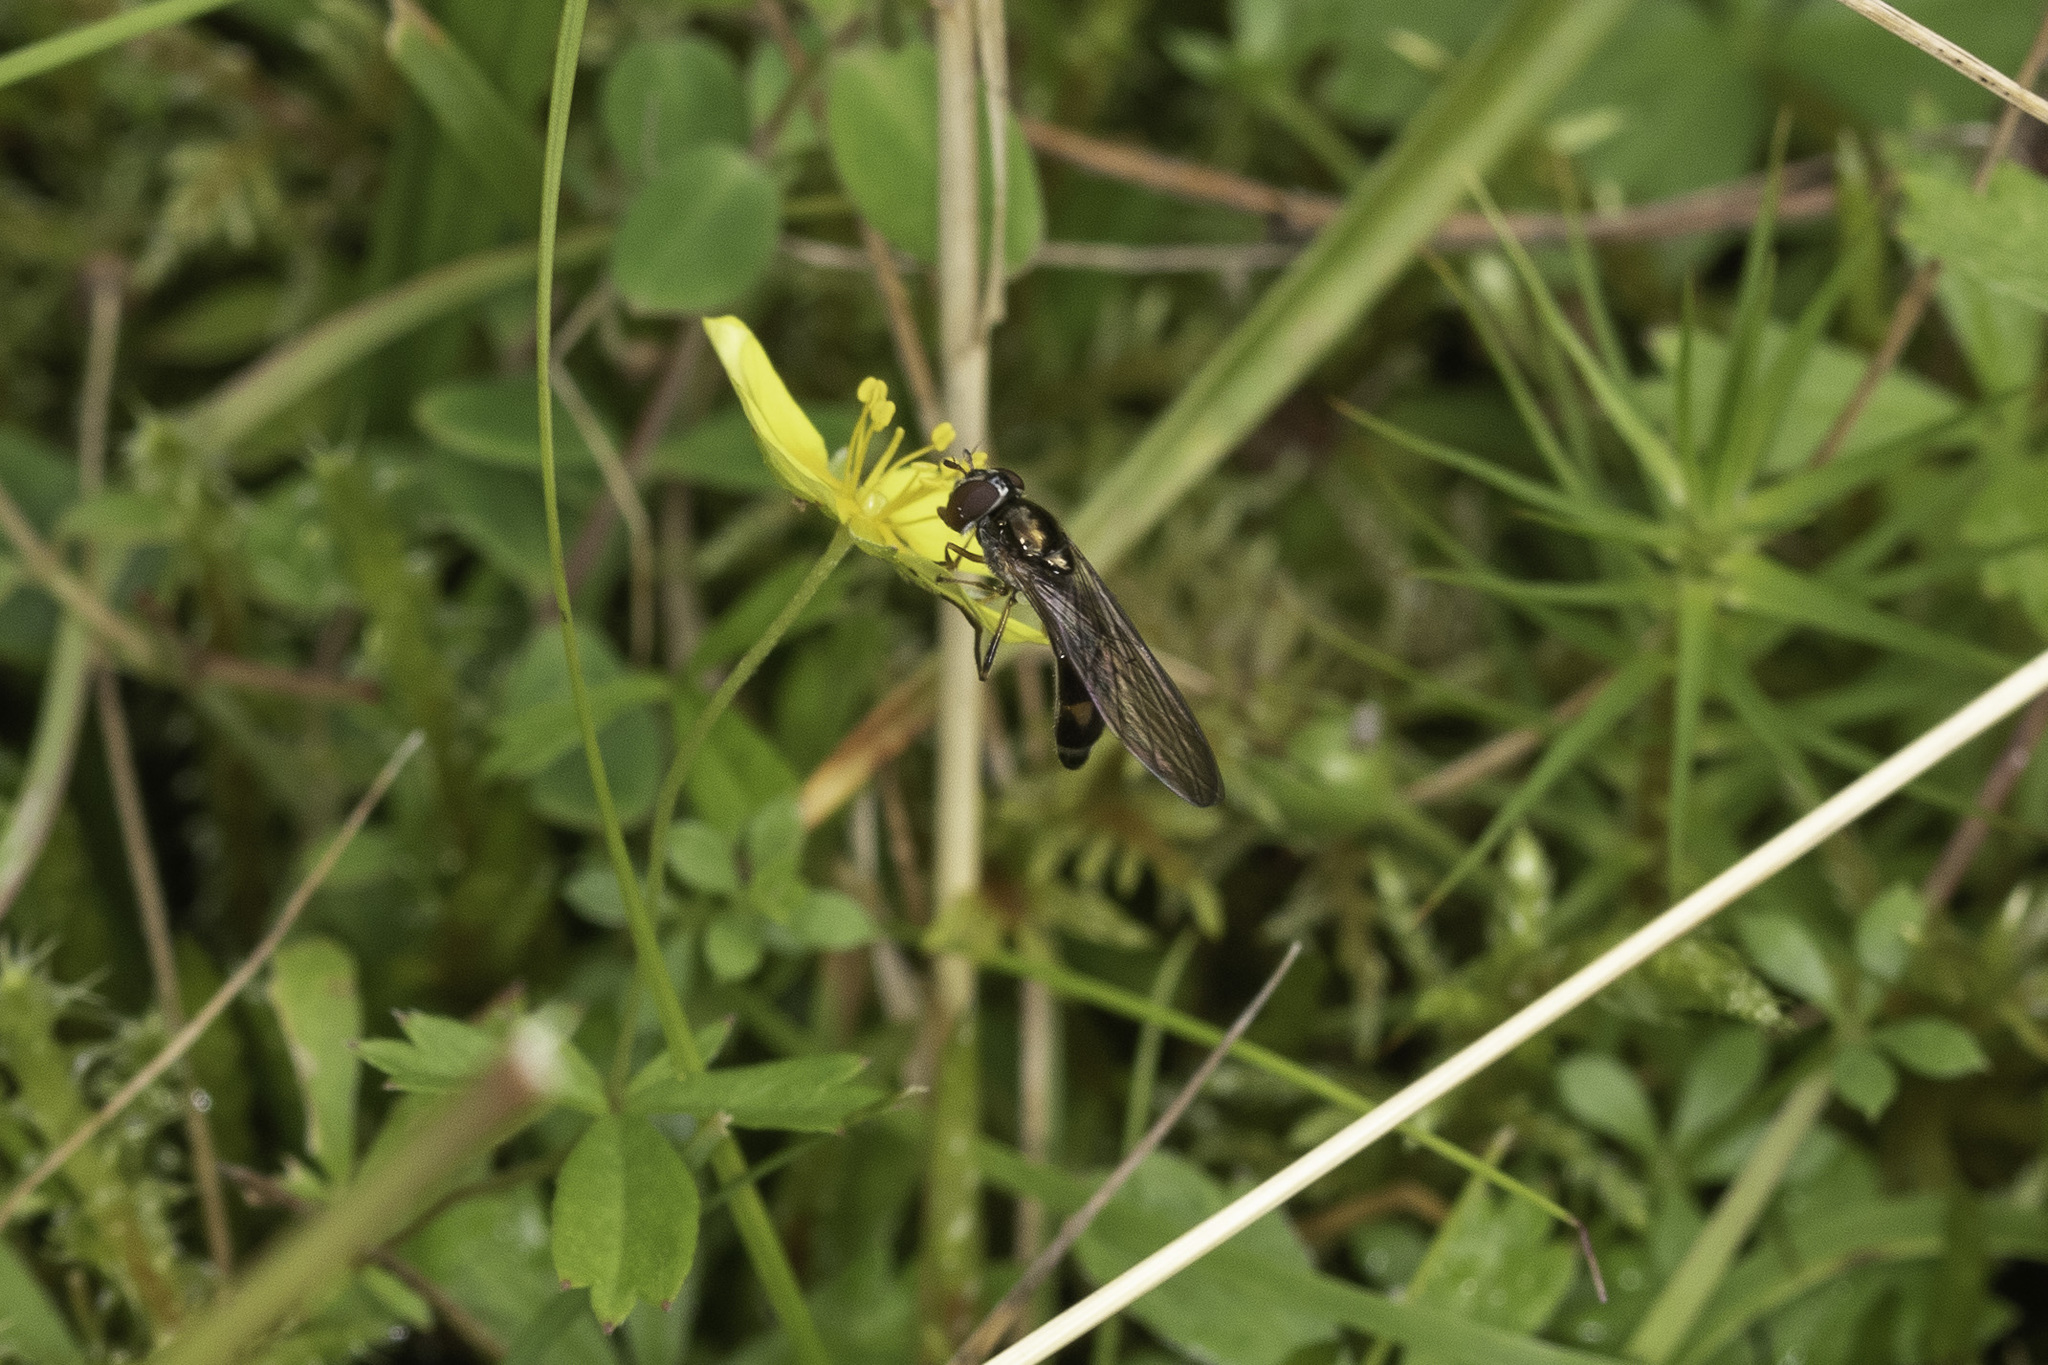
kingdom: Animalia
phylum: Arthropoda
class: Insecta
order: Diptera
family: Syrphidae
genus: Melanostoma
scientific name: Melanostoma scalare
